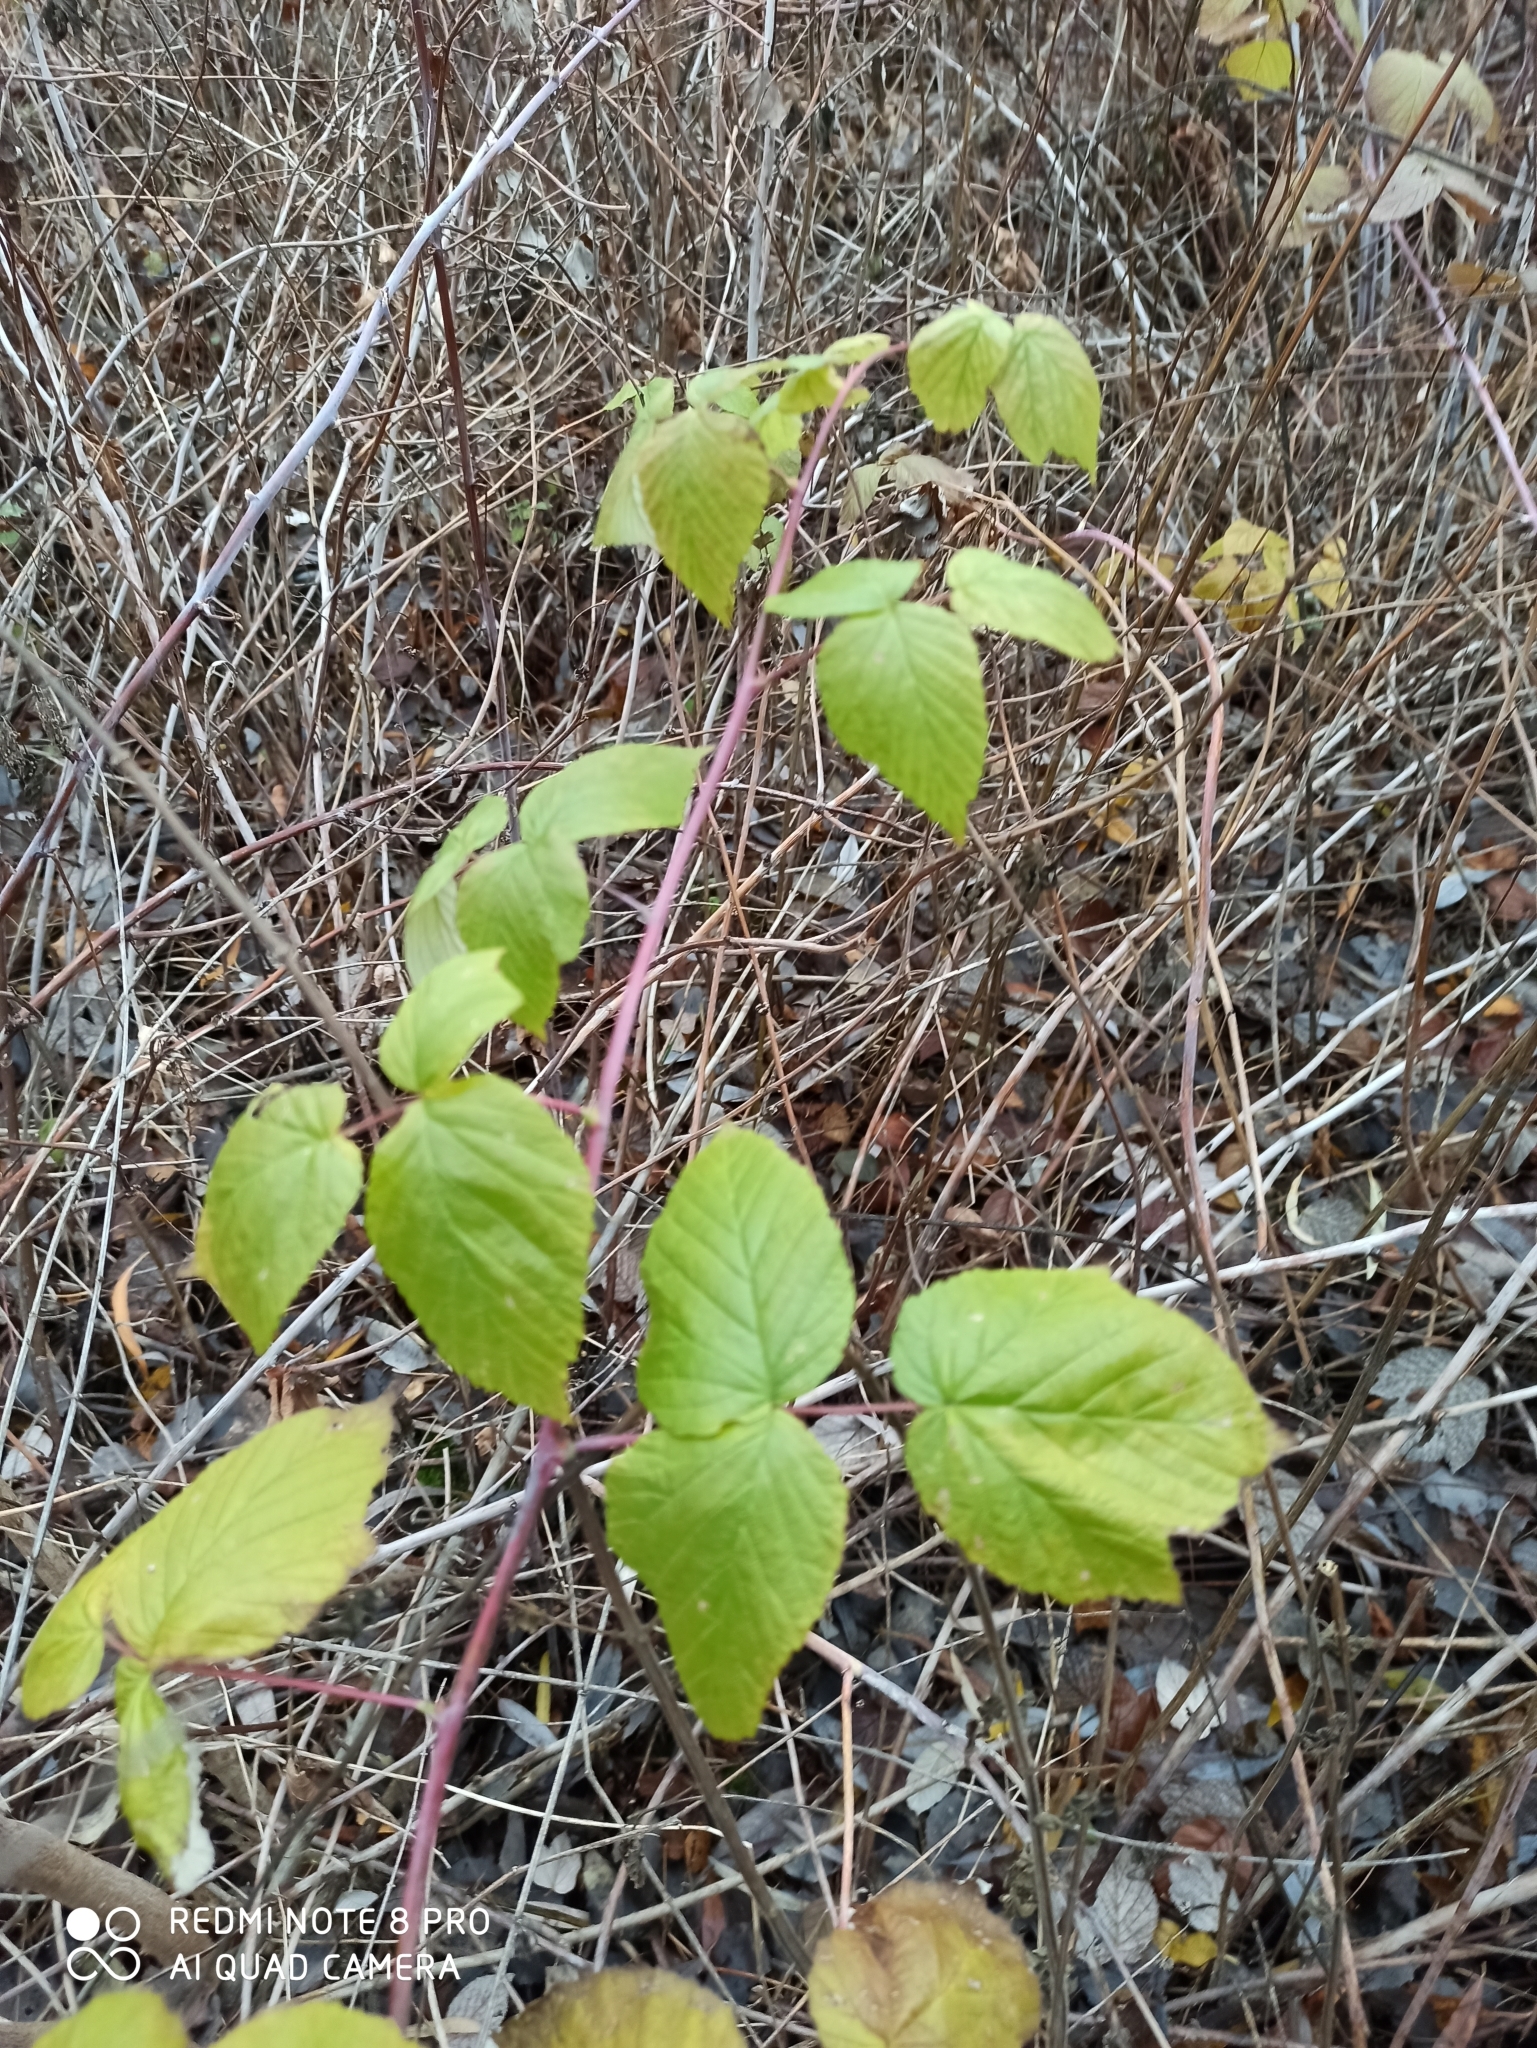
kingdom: Plantae
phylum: Tracheophyta
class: Magnoliopsida
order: Rosales
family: Rosaceae
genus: Rubus
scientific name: Rubus idaeus
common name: Raspberry
